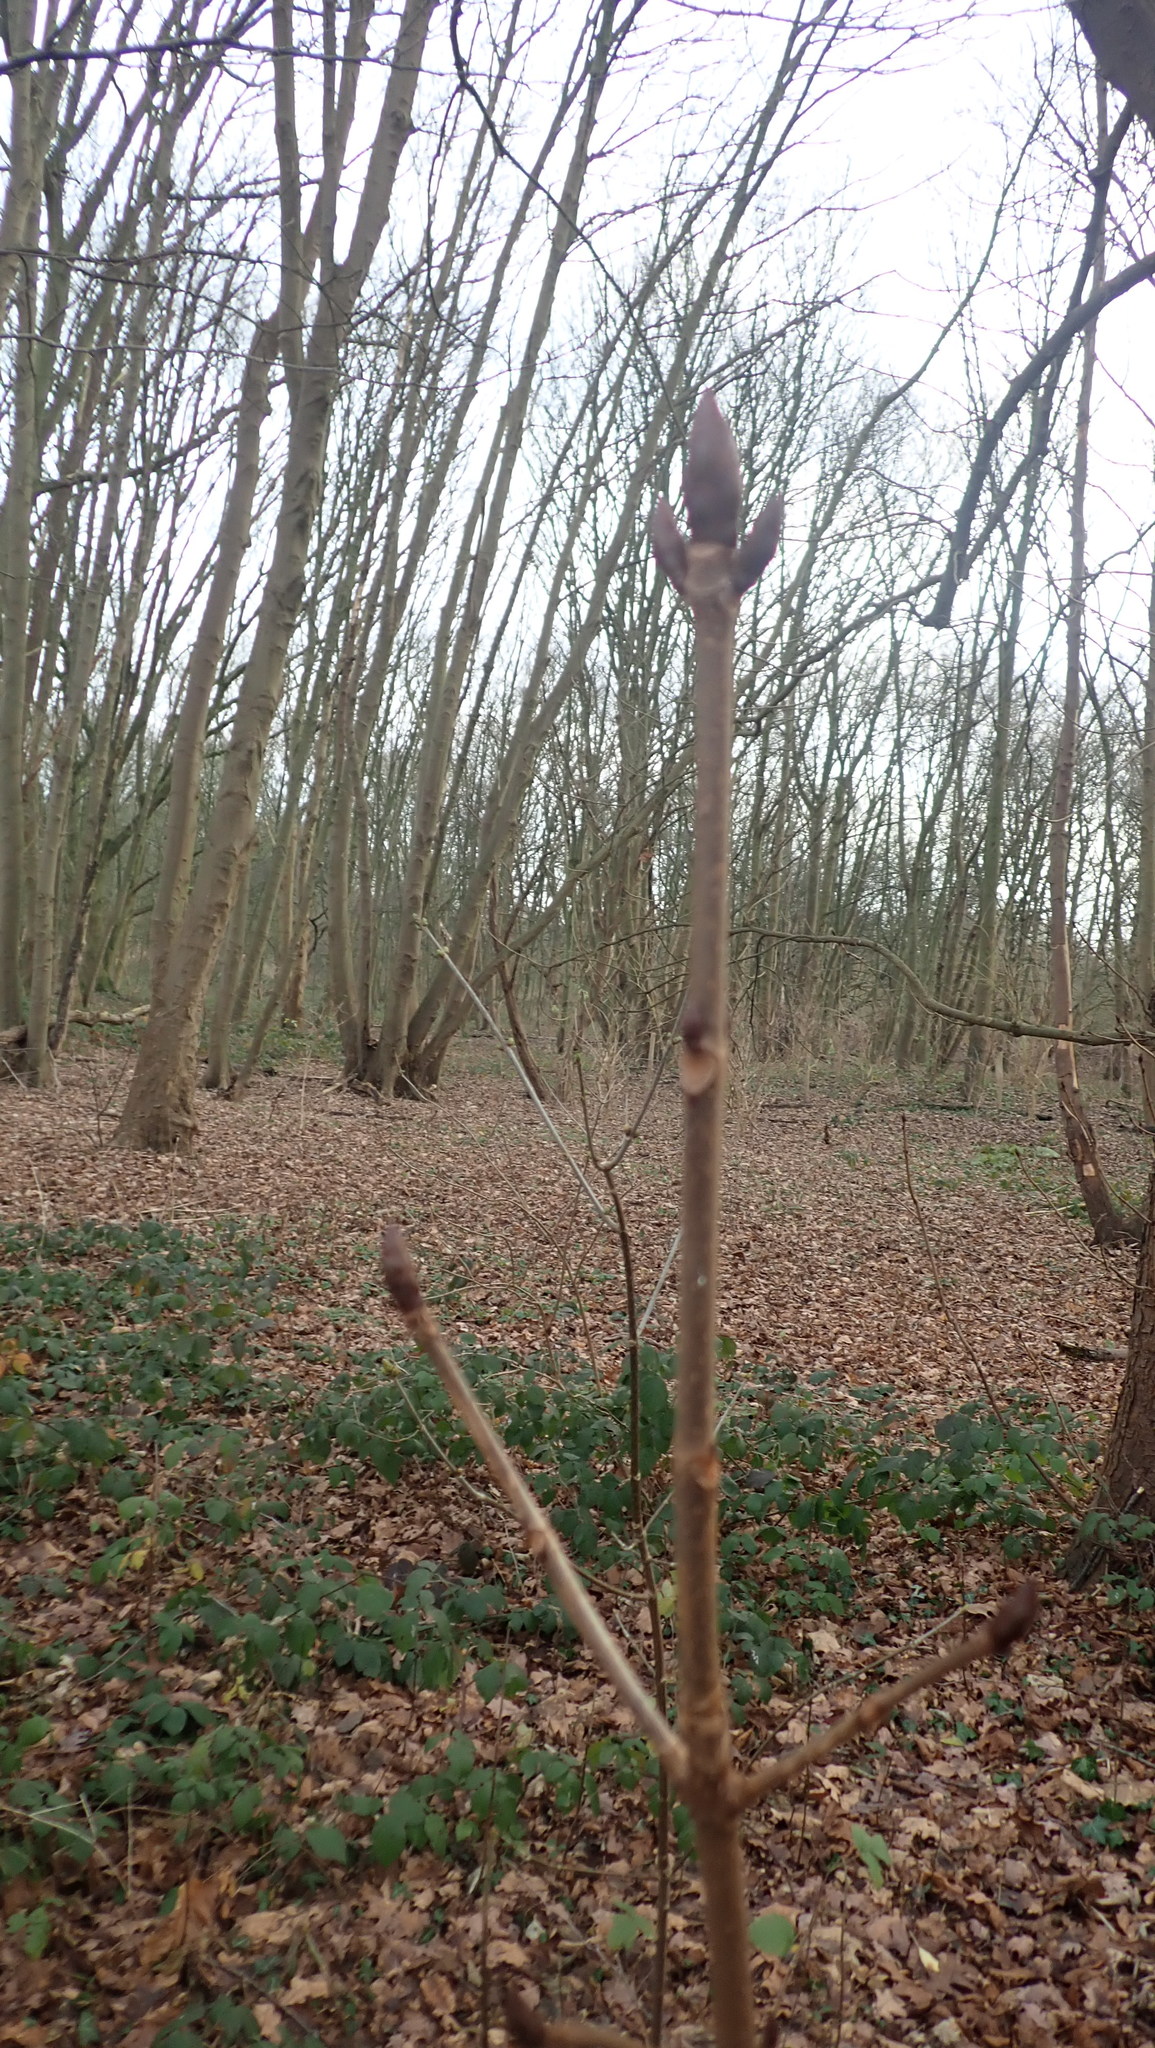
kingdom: Plantae
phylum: Tracheophyta
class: Magnoliopsida
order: Sapindales
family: Sapindaceae
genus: Aesculus
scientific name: Aesculus hippocastanum
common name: Horse-chestnut
